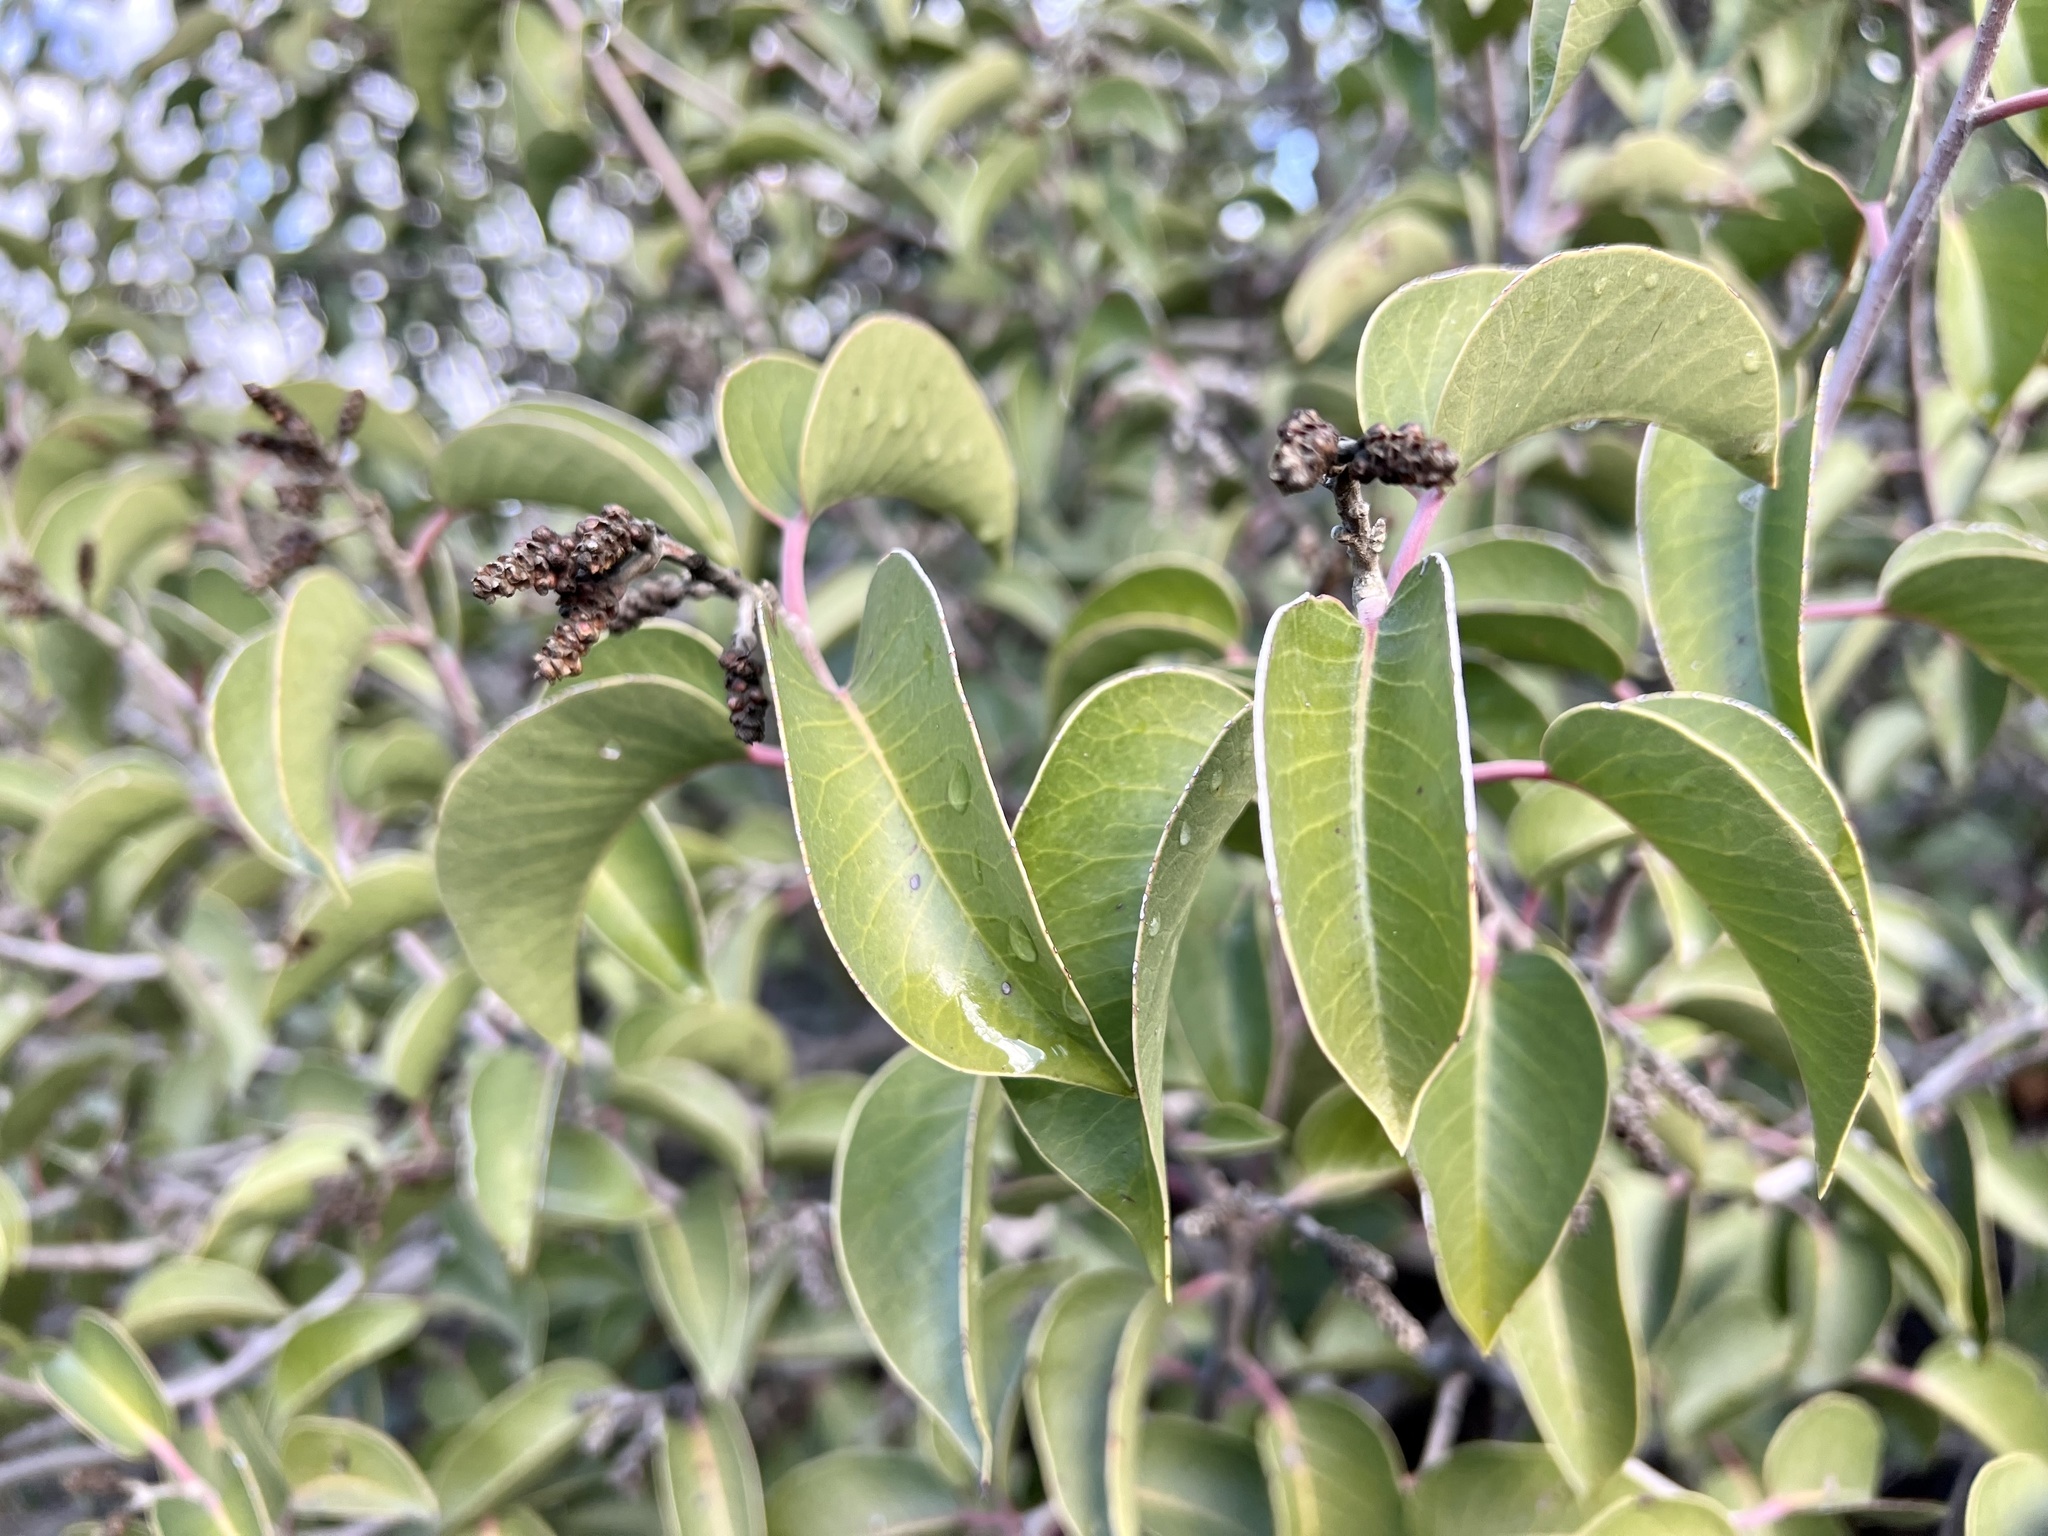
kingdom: Plantae
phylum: Tracheophyta
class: Magnoliopsida
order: Sapindales
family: Anacardiaceae
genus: Rhus
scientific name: Rhus ovata
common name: Sugar sumac
